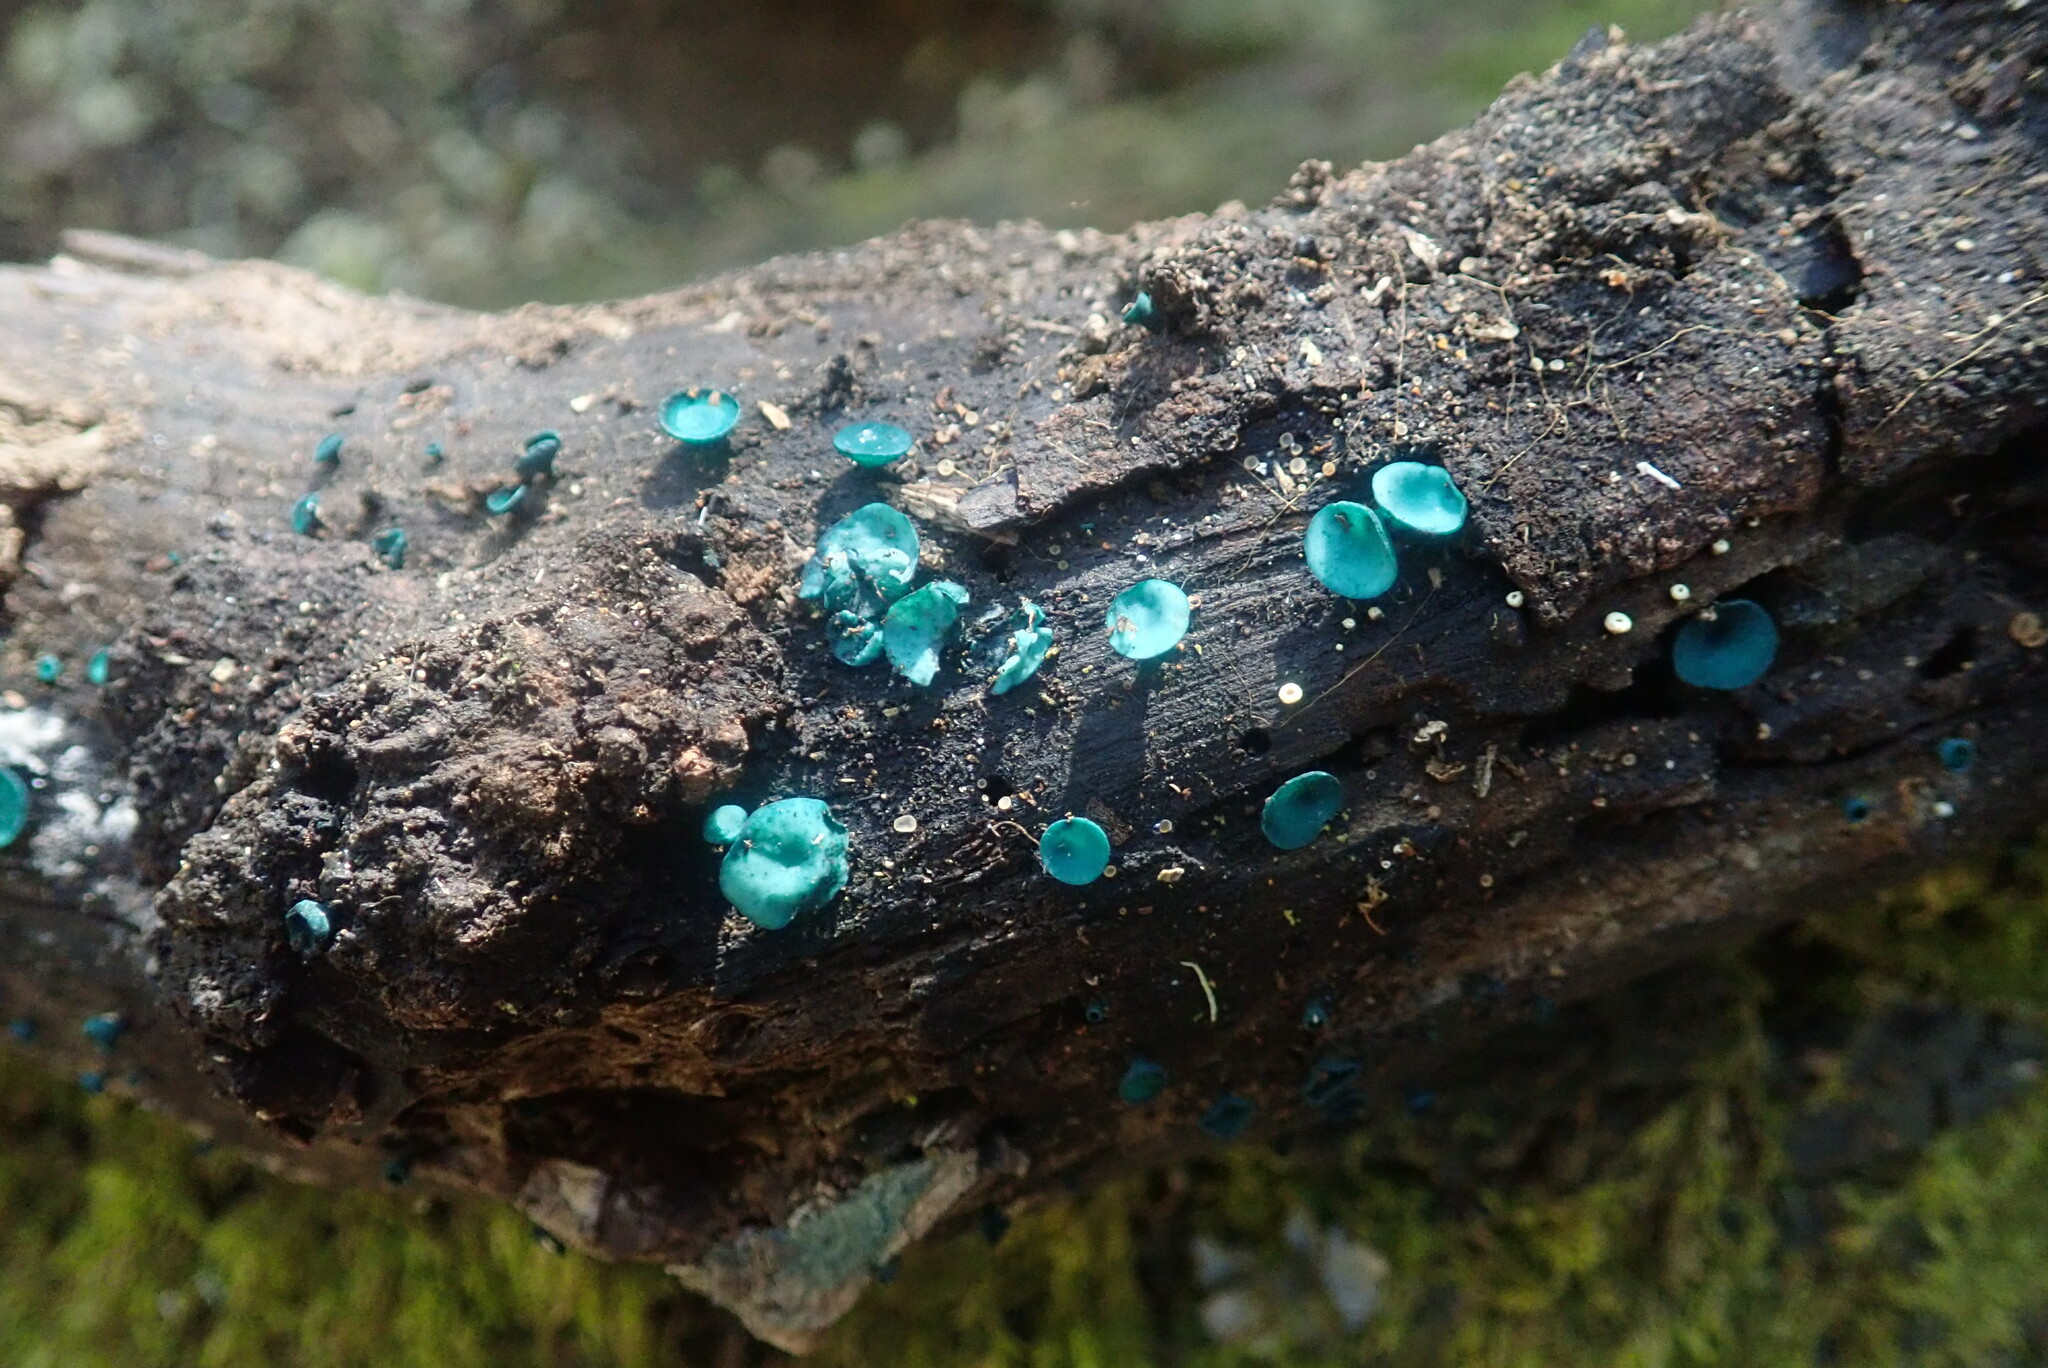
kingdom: Fungi
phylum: Ascomycota
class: Leotiomycetes
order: Helotiales
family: Chlorociboriaceae
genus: Chlorociboria
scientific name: Chlorociboria aeruginascens
